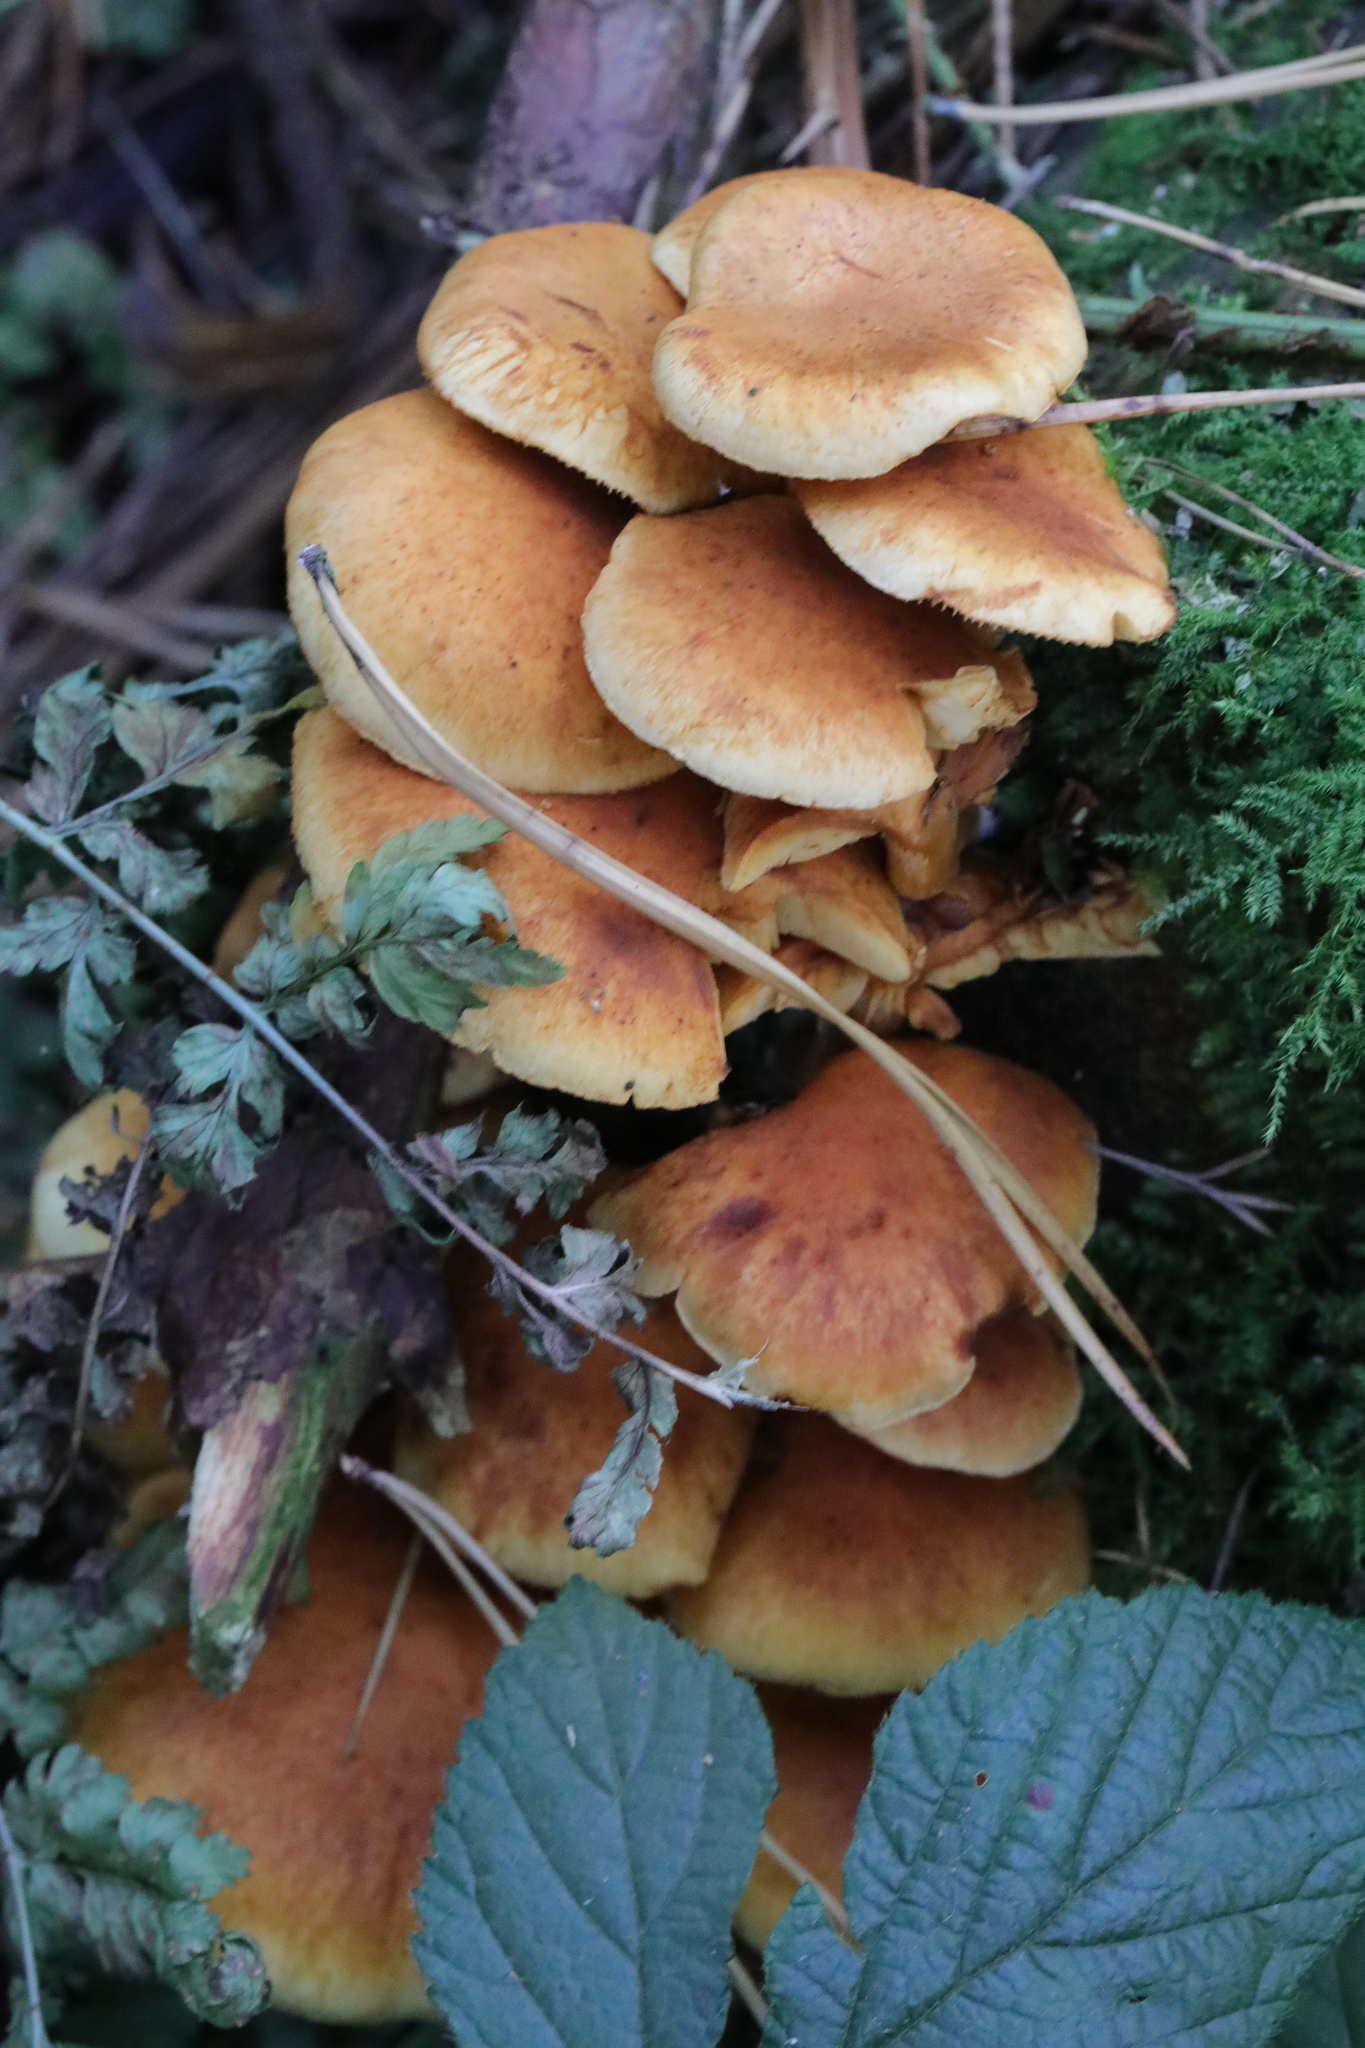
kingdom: Fungi
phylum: Basidiomycota
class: Agaricomycetes
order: Agaricales
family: Hymenogastraceae
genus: Gymnopilus
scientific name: Gymnopilus
